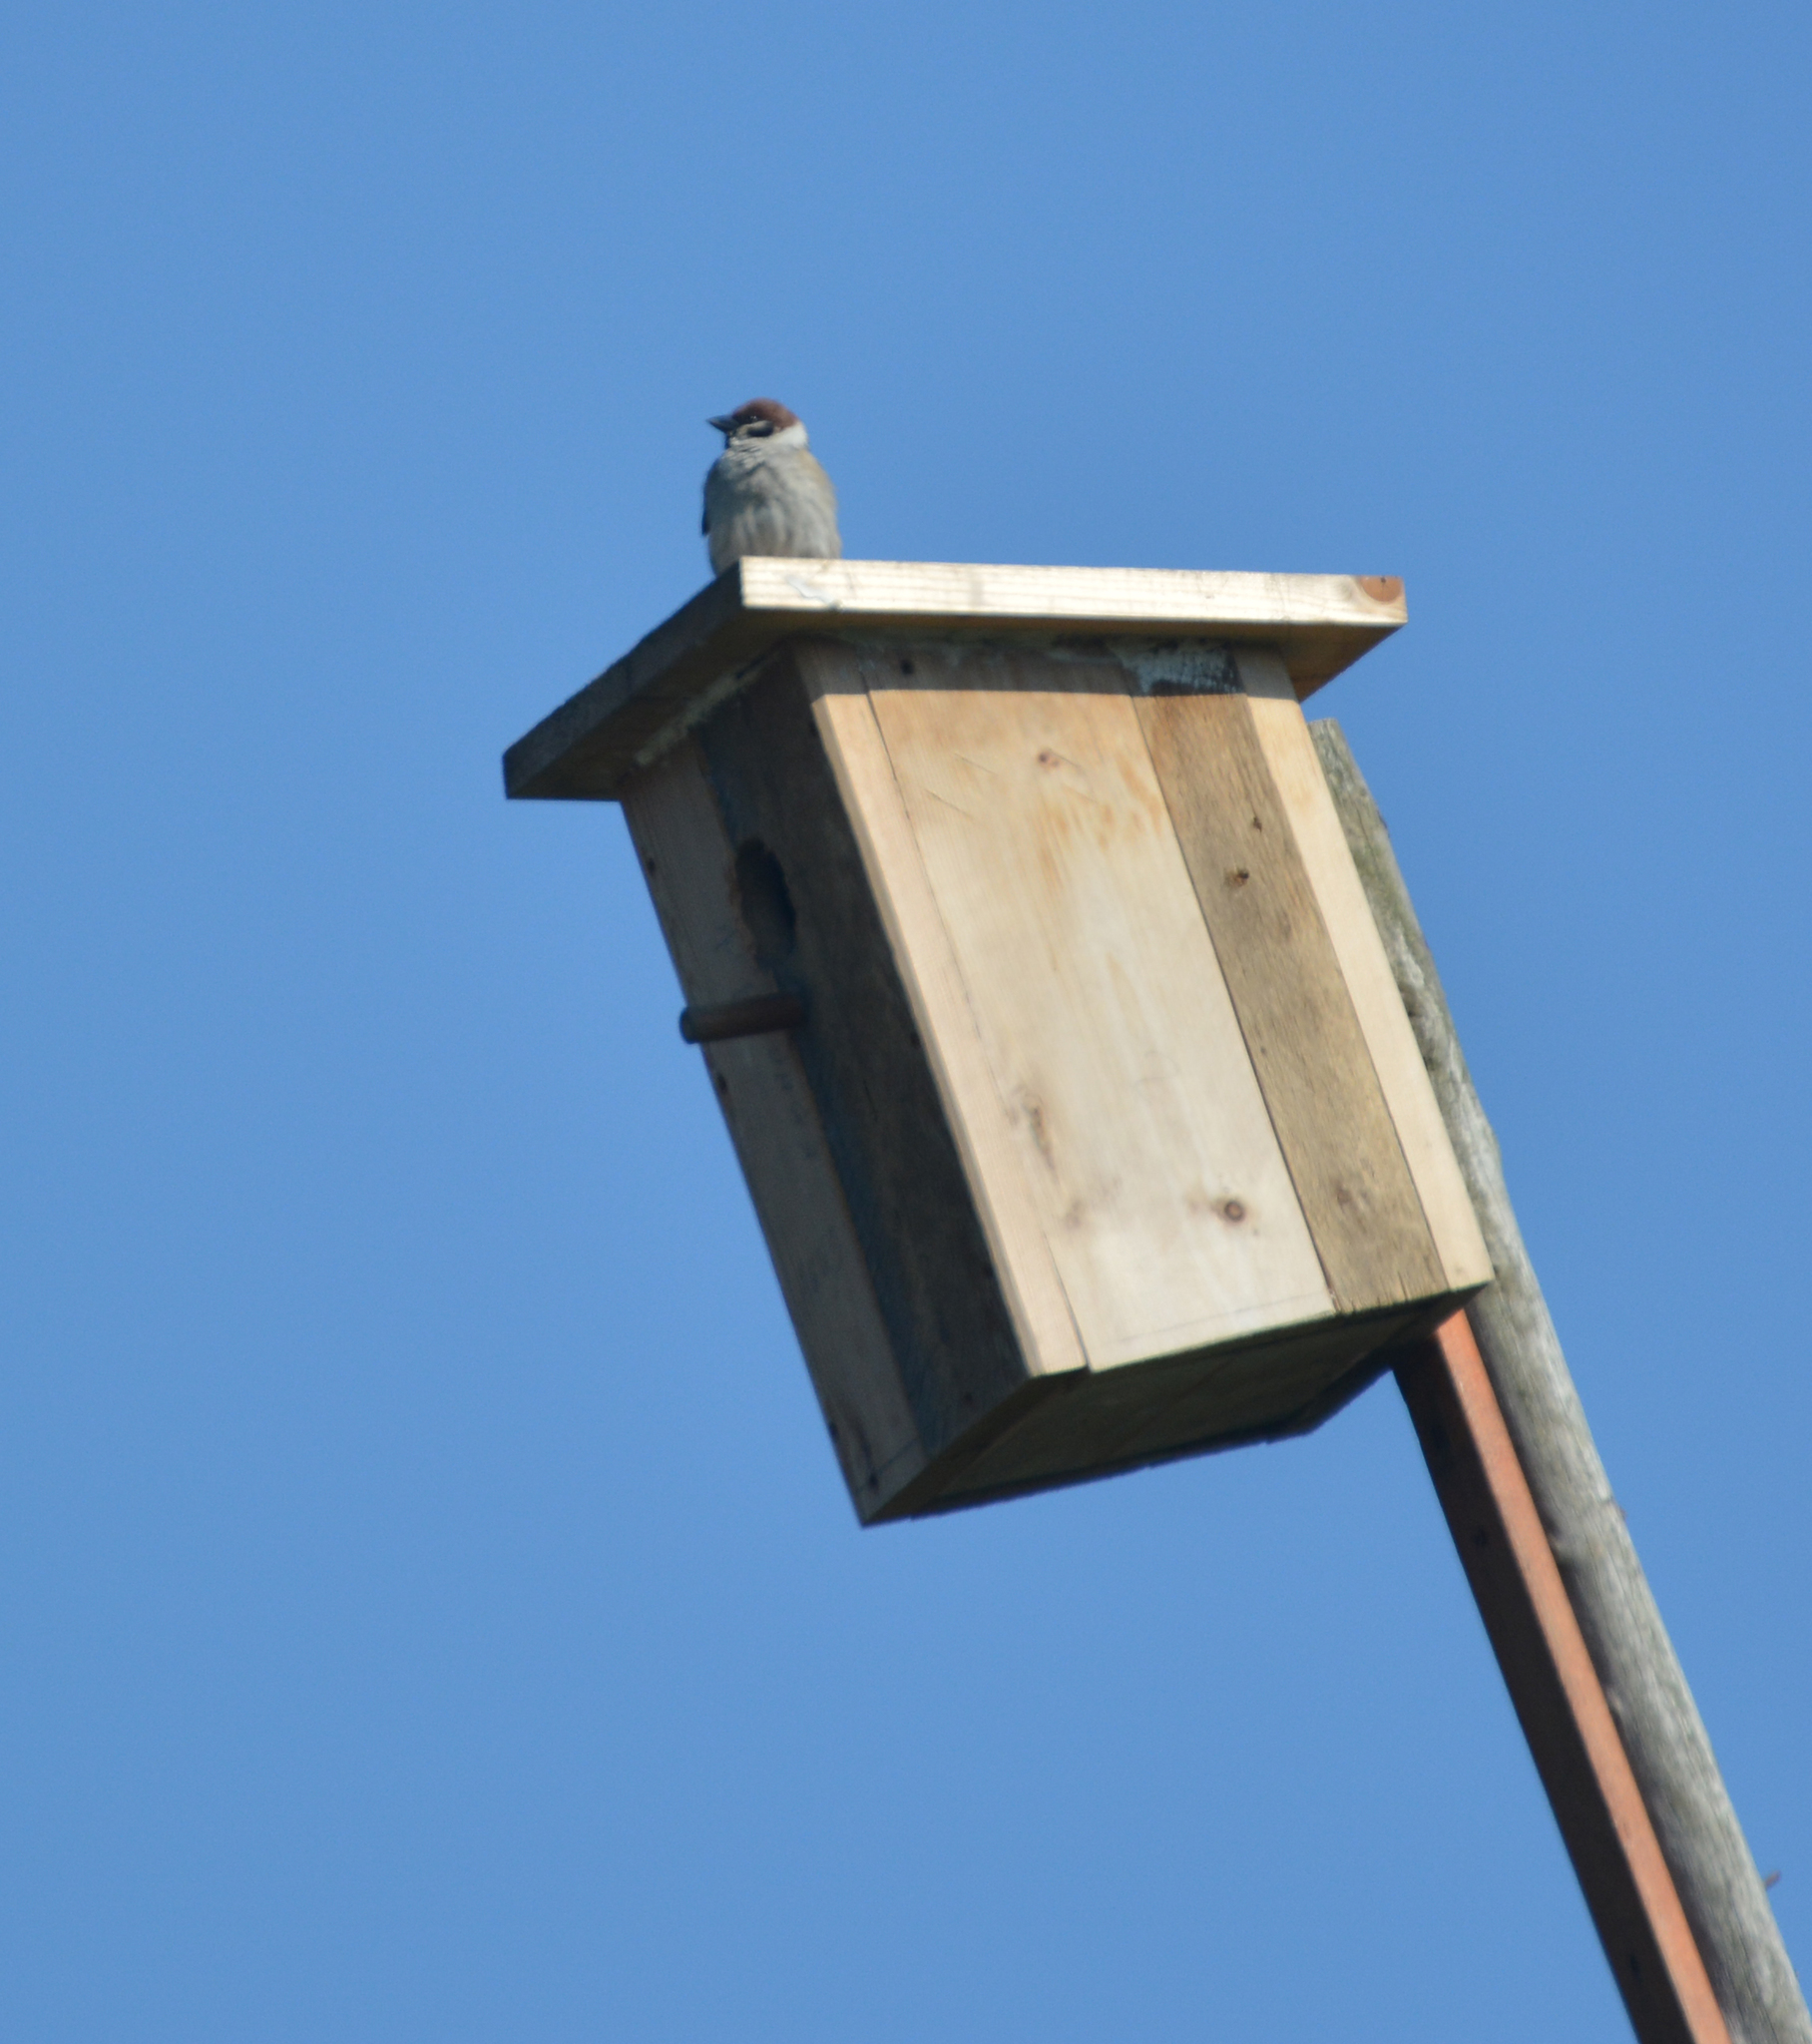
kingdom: Animalia
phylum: Chordata
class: Aves
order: Passeriformes
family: Passeridae
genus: Passer
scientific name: Passer montanus
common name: Eurasian tree sparrow
